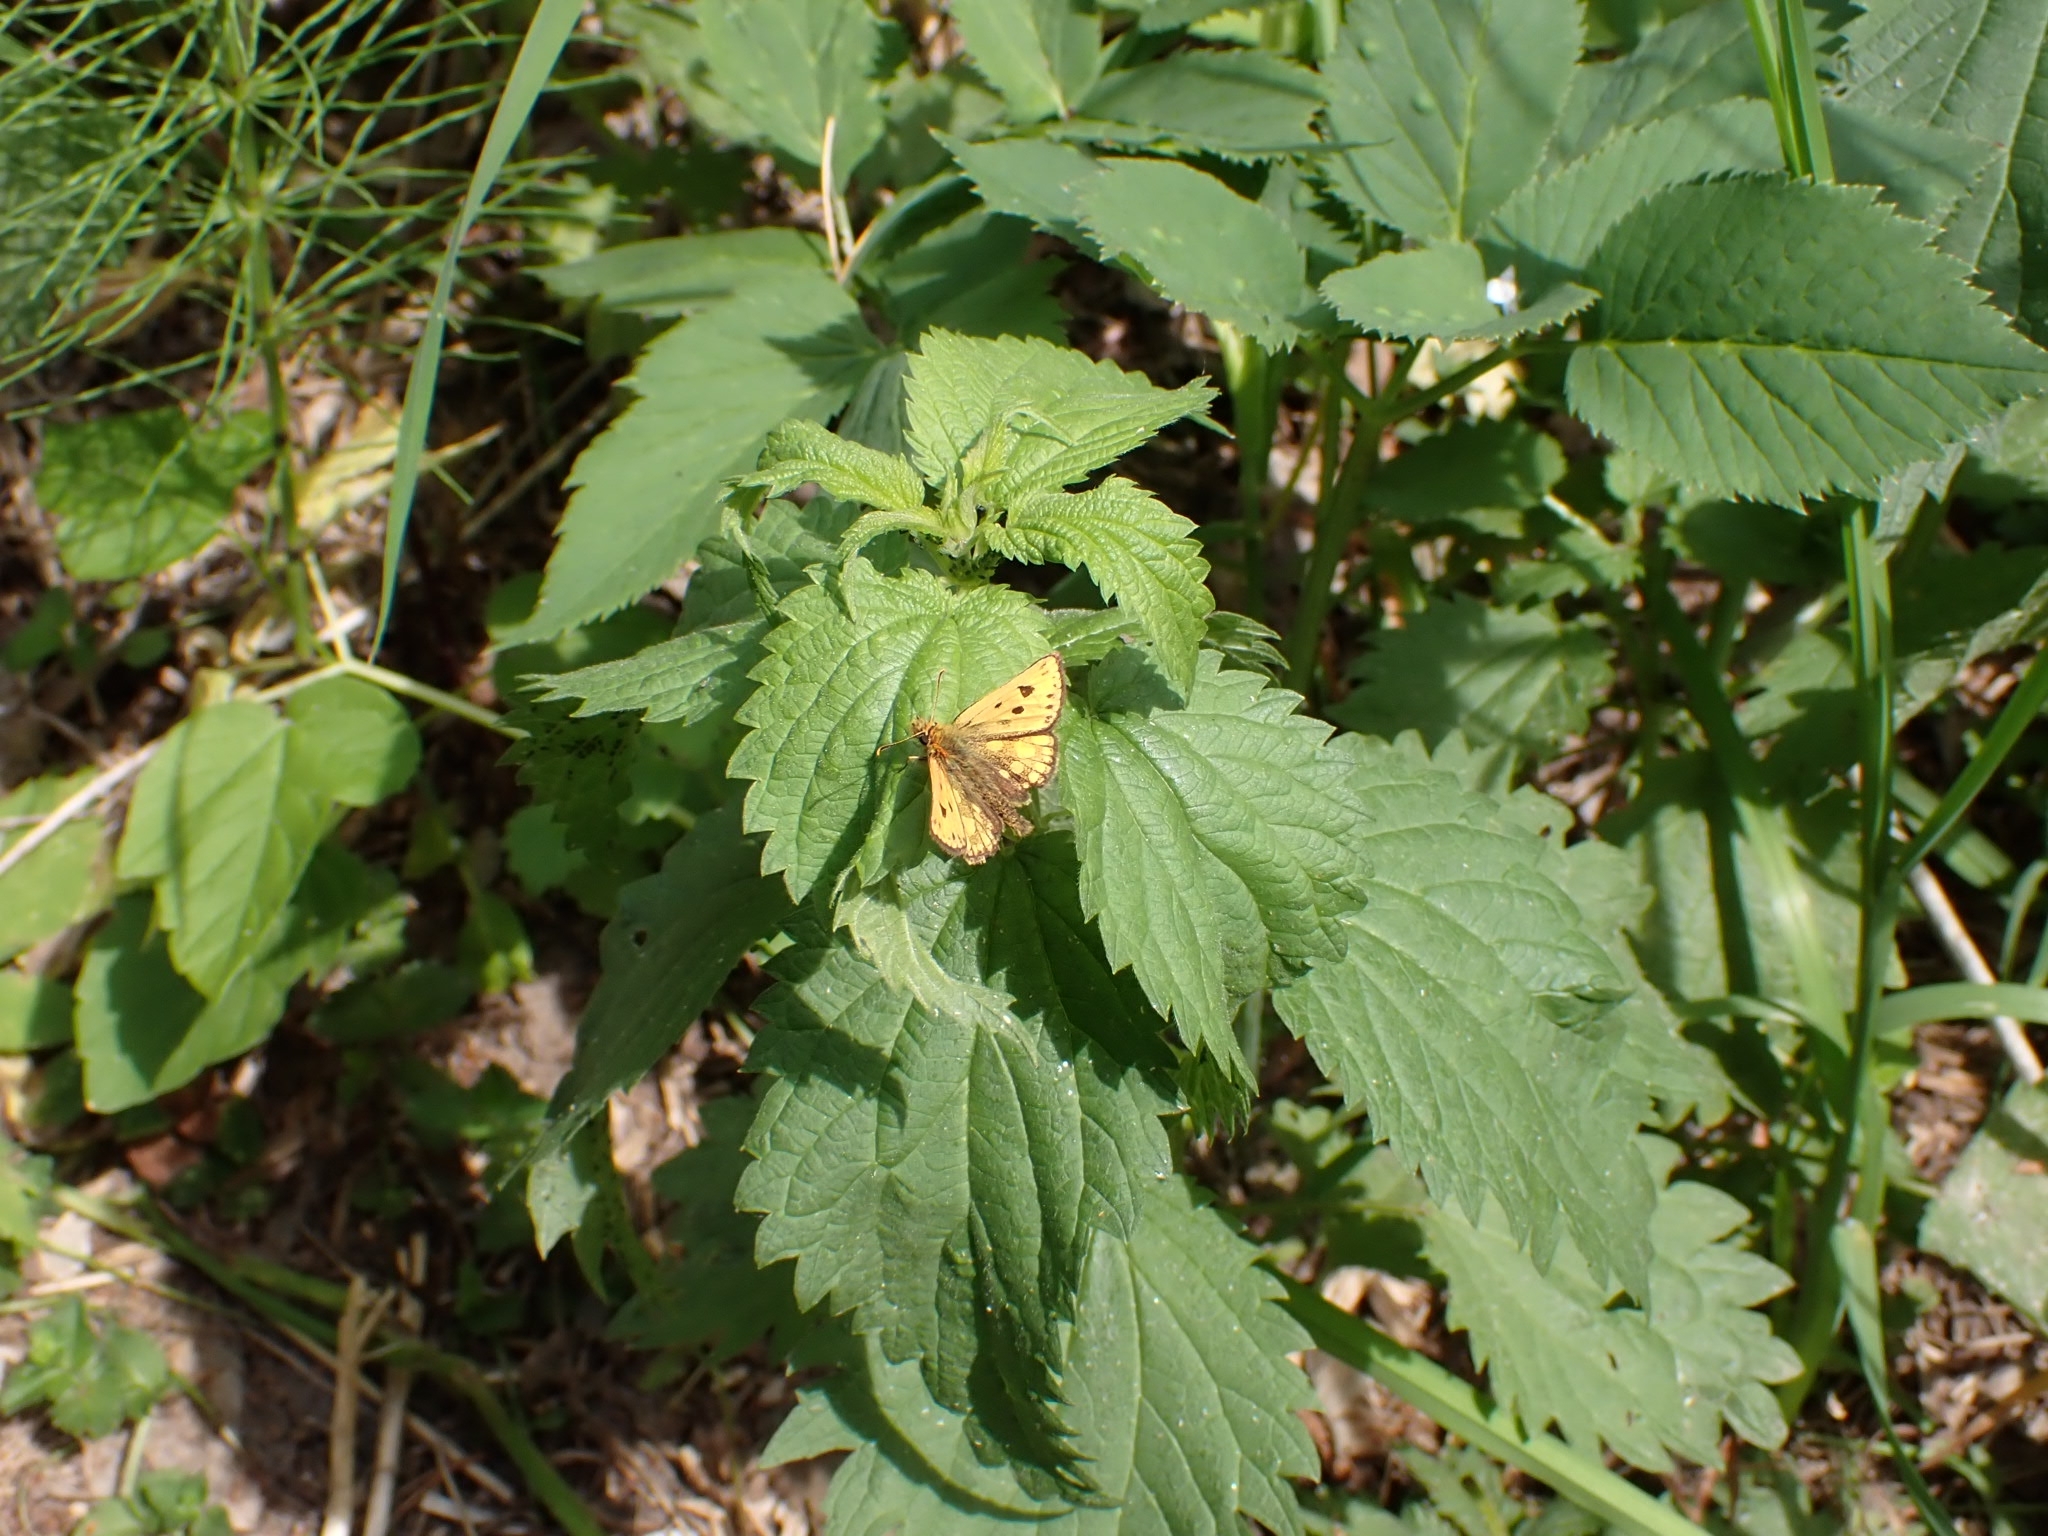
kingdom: Animalia
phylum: Arthropoda
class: Insecta
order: Lepidoptera
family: Hesperiidae
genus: Carterocephalus
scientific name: Carterocephalus silvicola
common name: Northern chequered skipper
